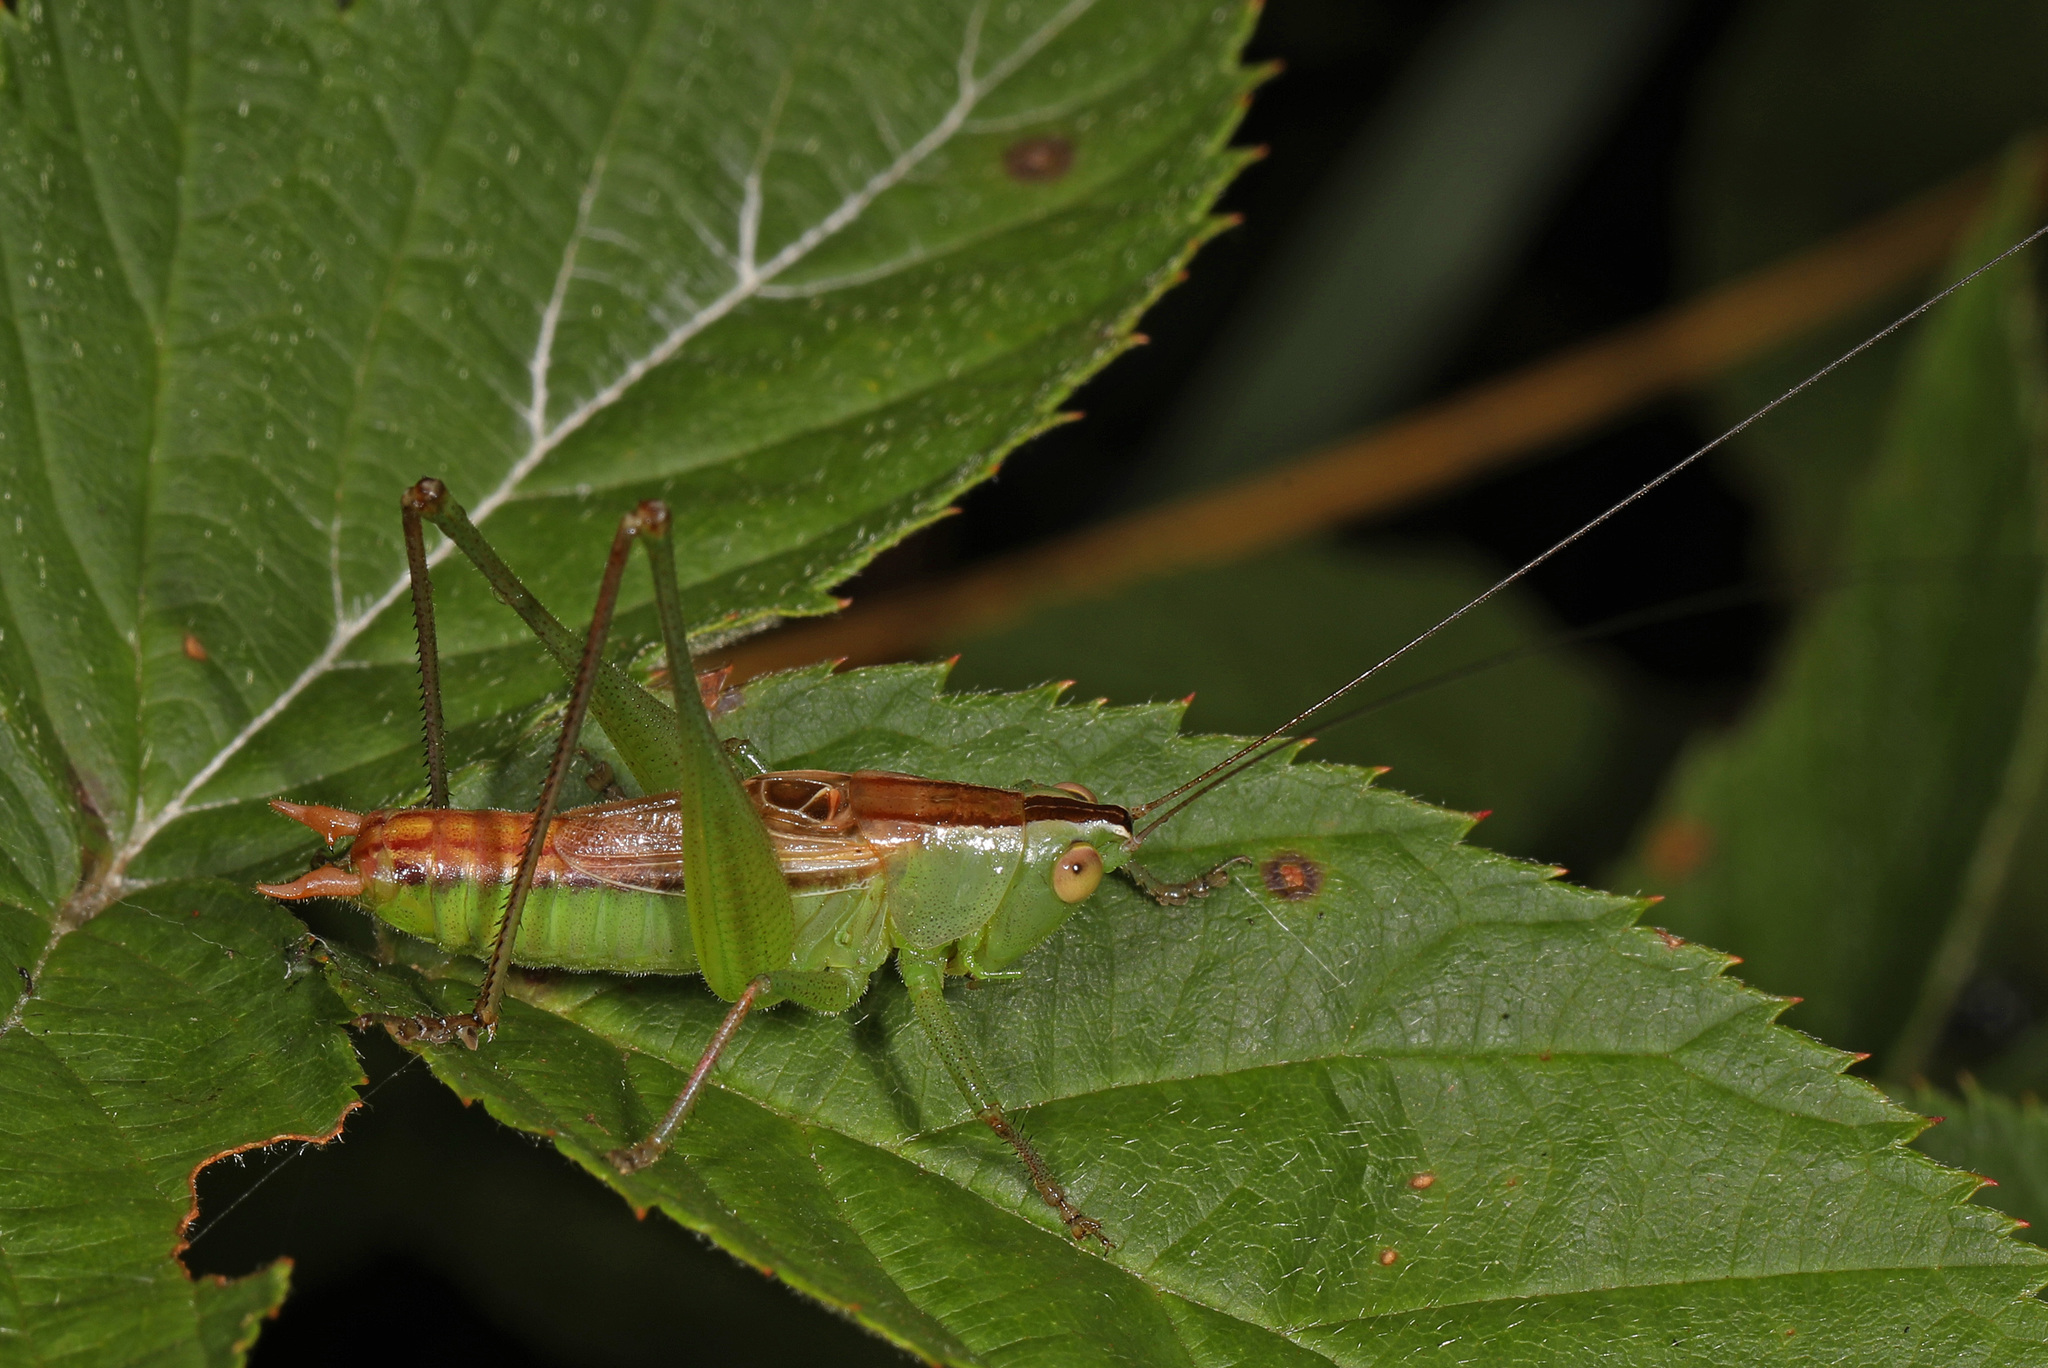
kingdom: Animalia
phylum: Arthropoda
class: Insecta
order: Orthoptera
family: Tettigoniidae
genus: Conocephalus
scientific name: Conocephalus strictus
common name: Straight-lanced katydid
